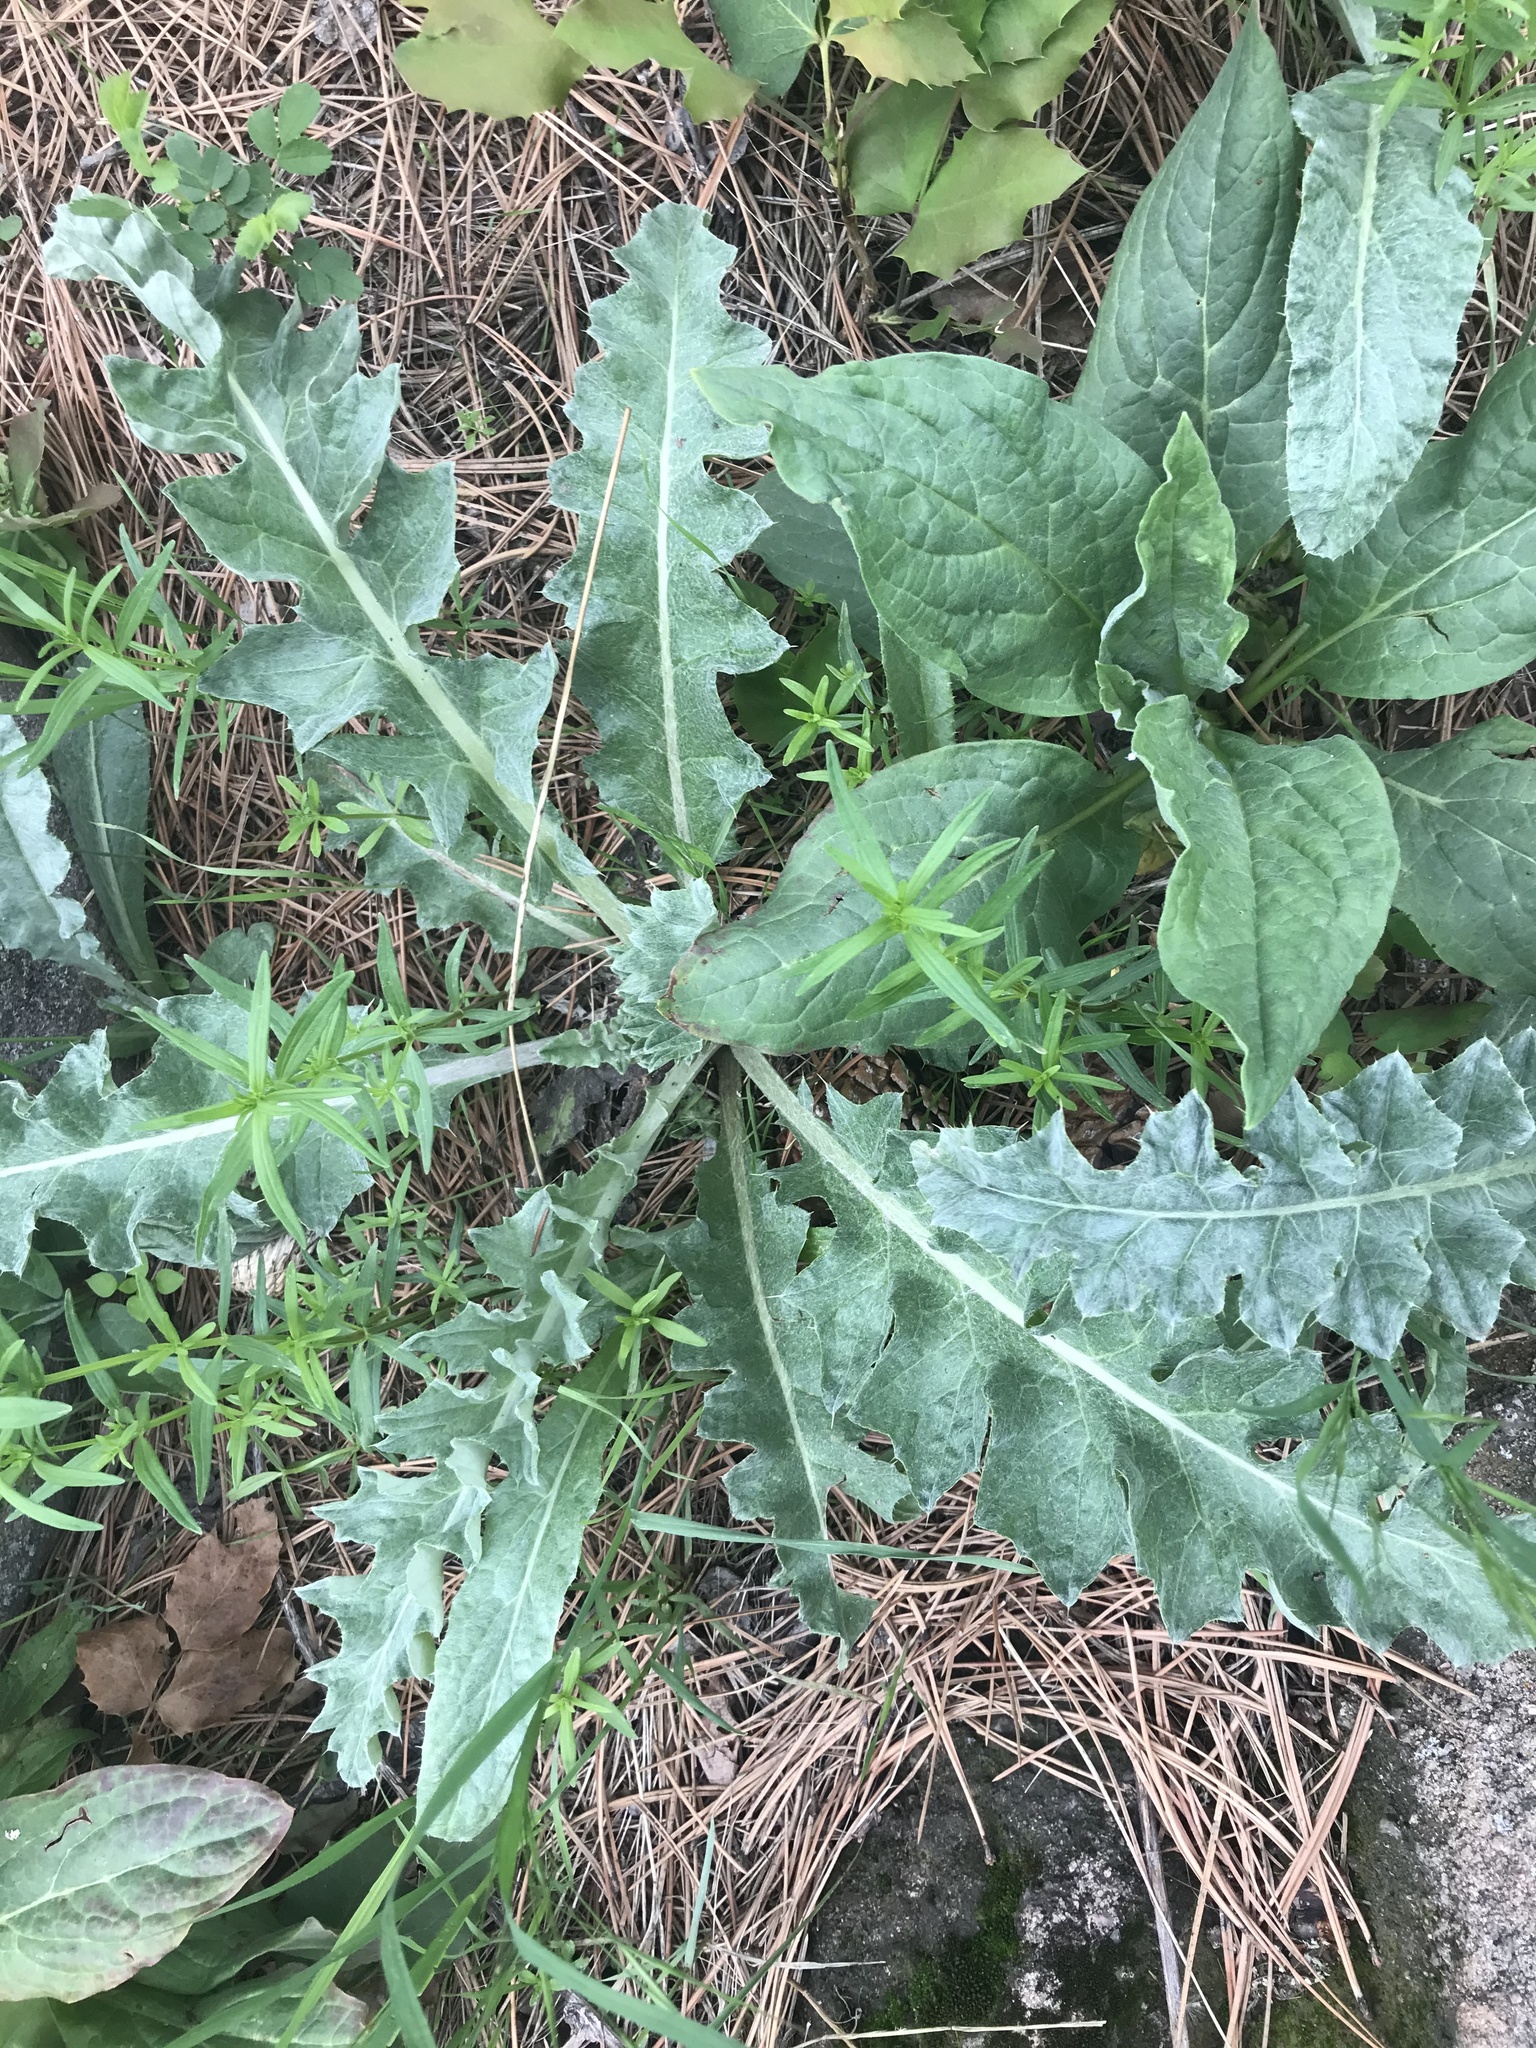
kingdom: Plantae
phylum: Tracheophyta
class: Magnoliopsida
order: Asterales
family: Asteraceae
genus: Cirsium
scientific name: Cirsium undulatum
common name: Pasture thistle
